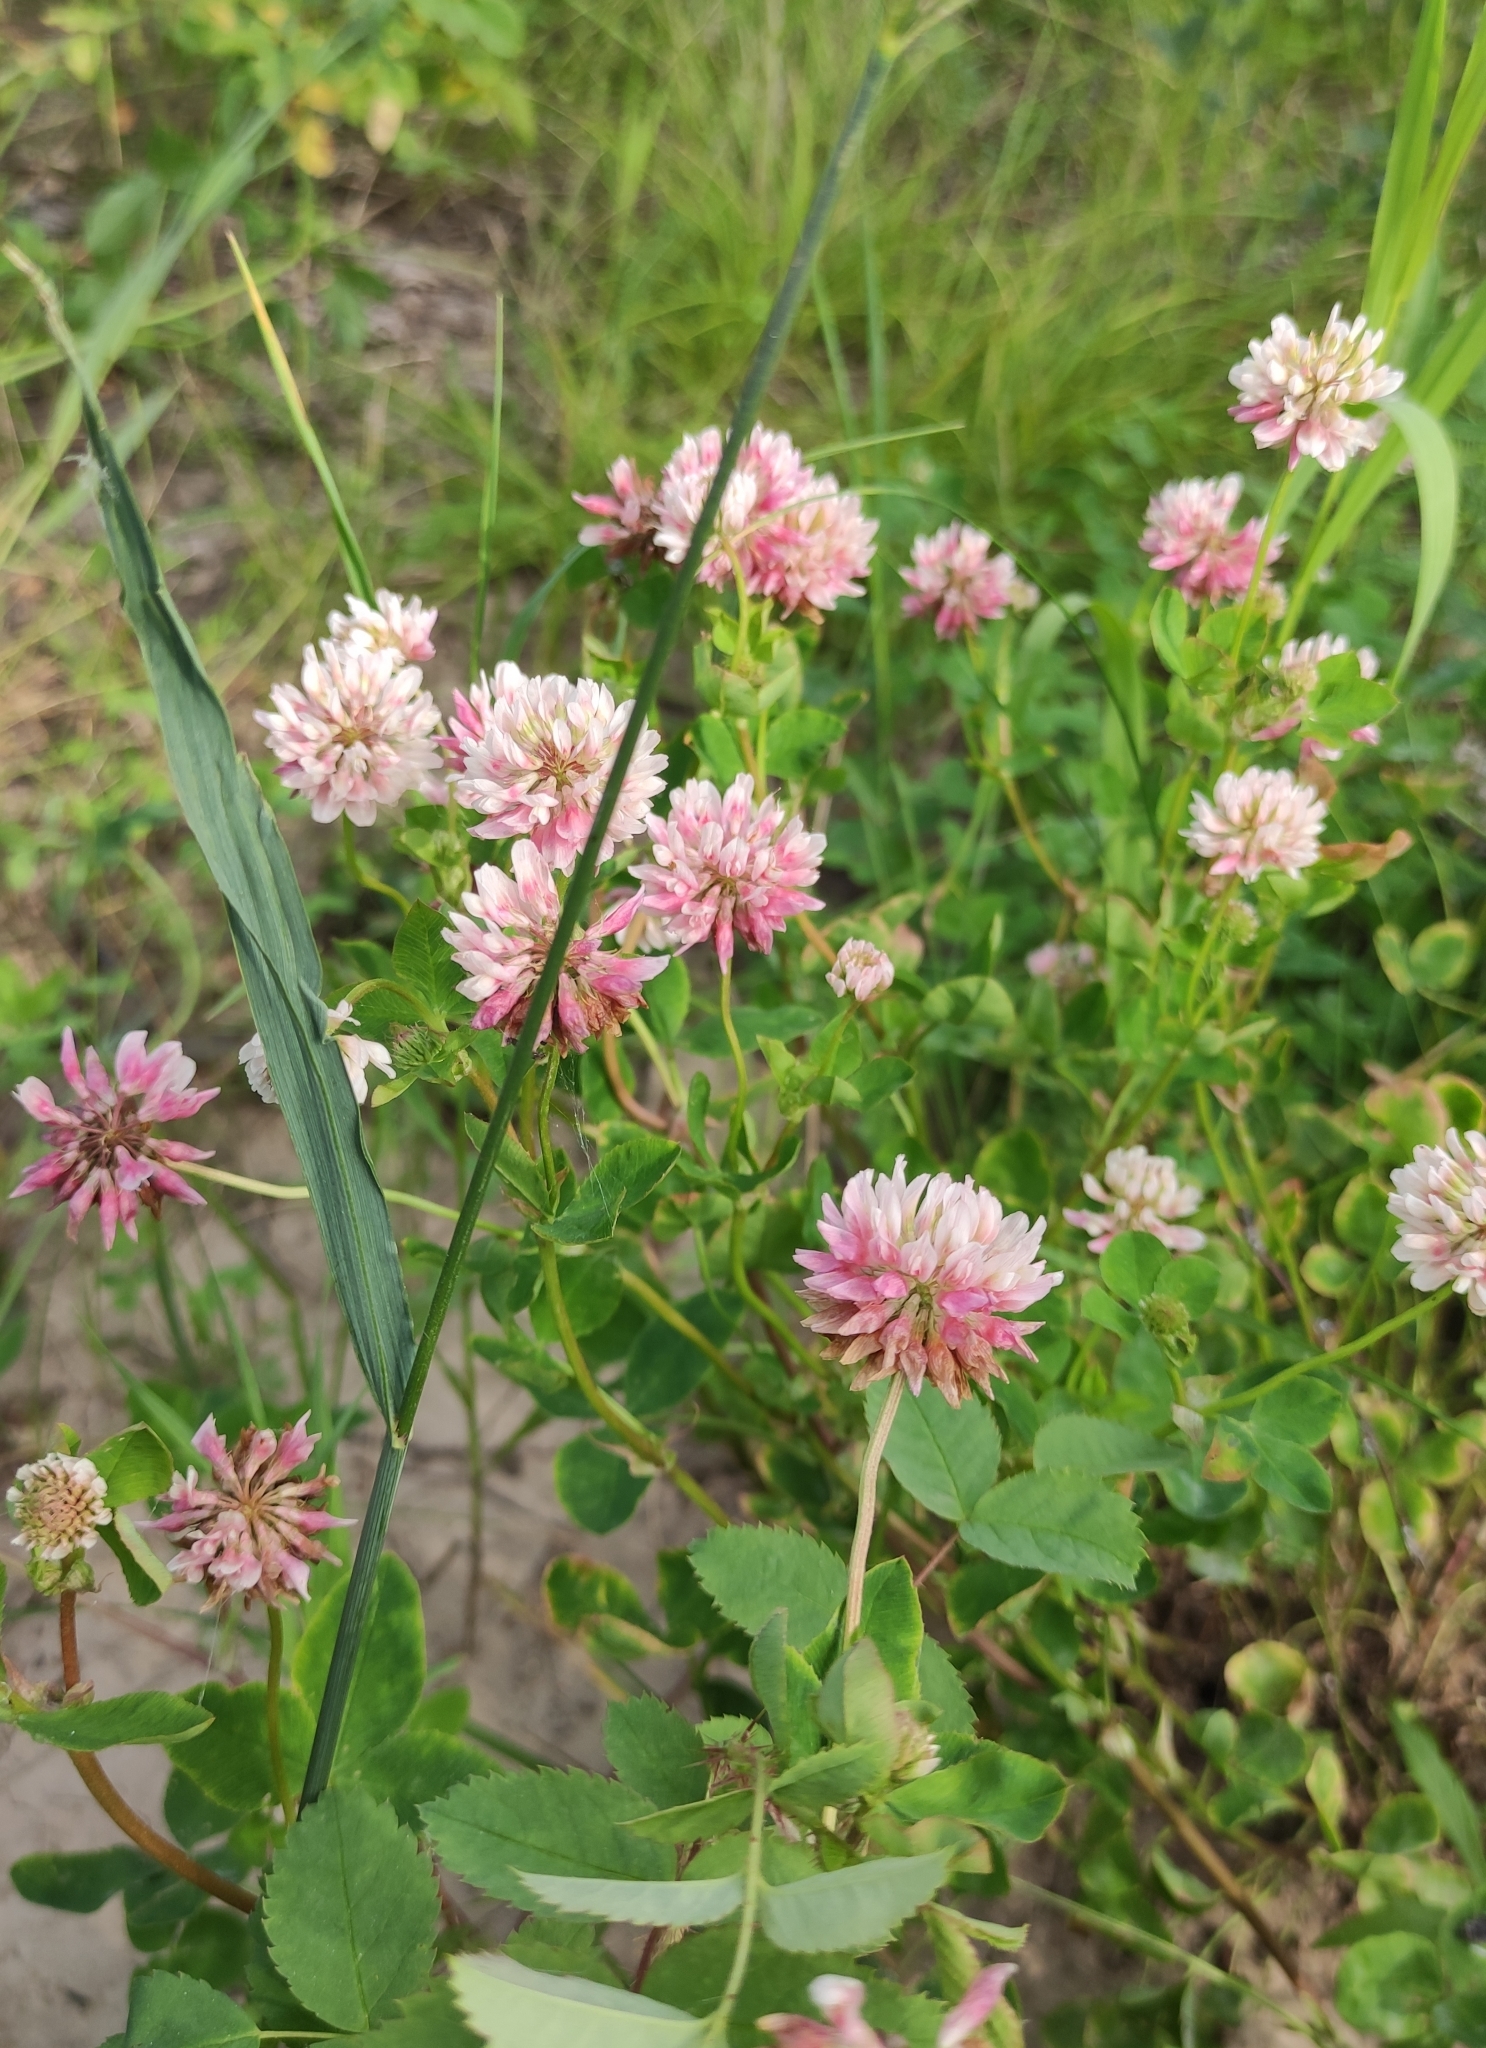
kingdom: Plantae
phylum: Tracheophyta
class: Magnoliopsida
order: Fabales
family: Fabaceae
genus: Trifolium
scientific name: Trifolium hybridum
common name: Alsike clover
